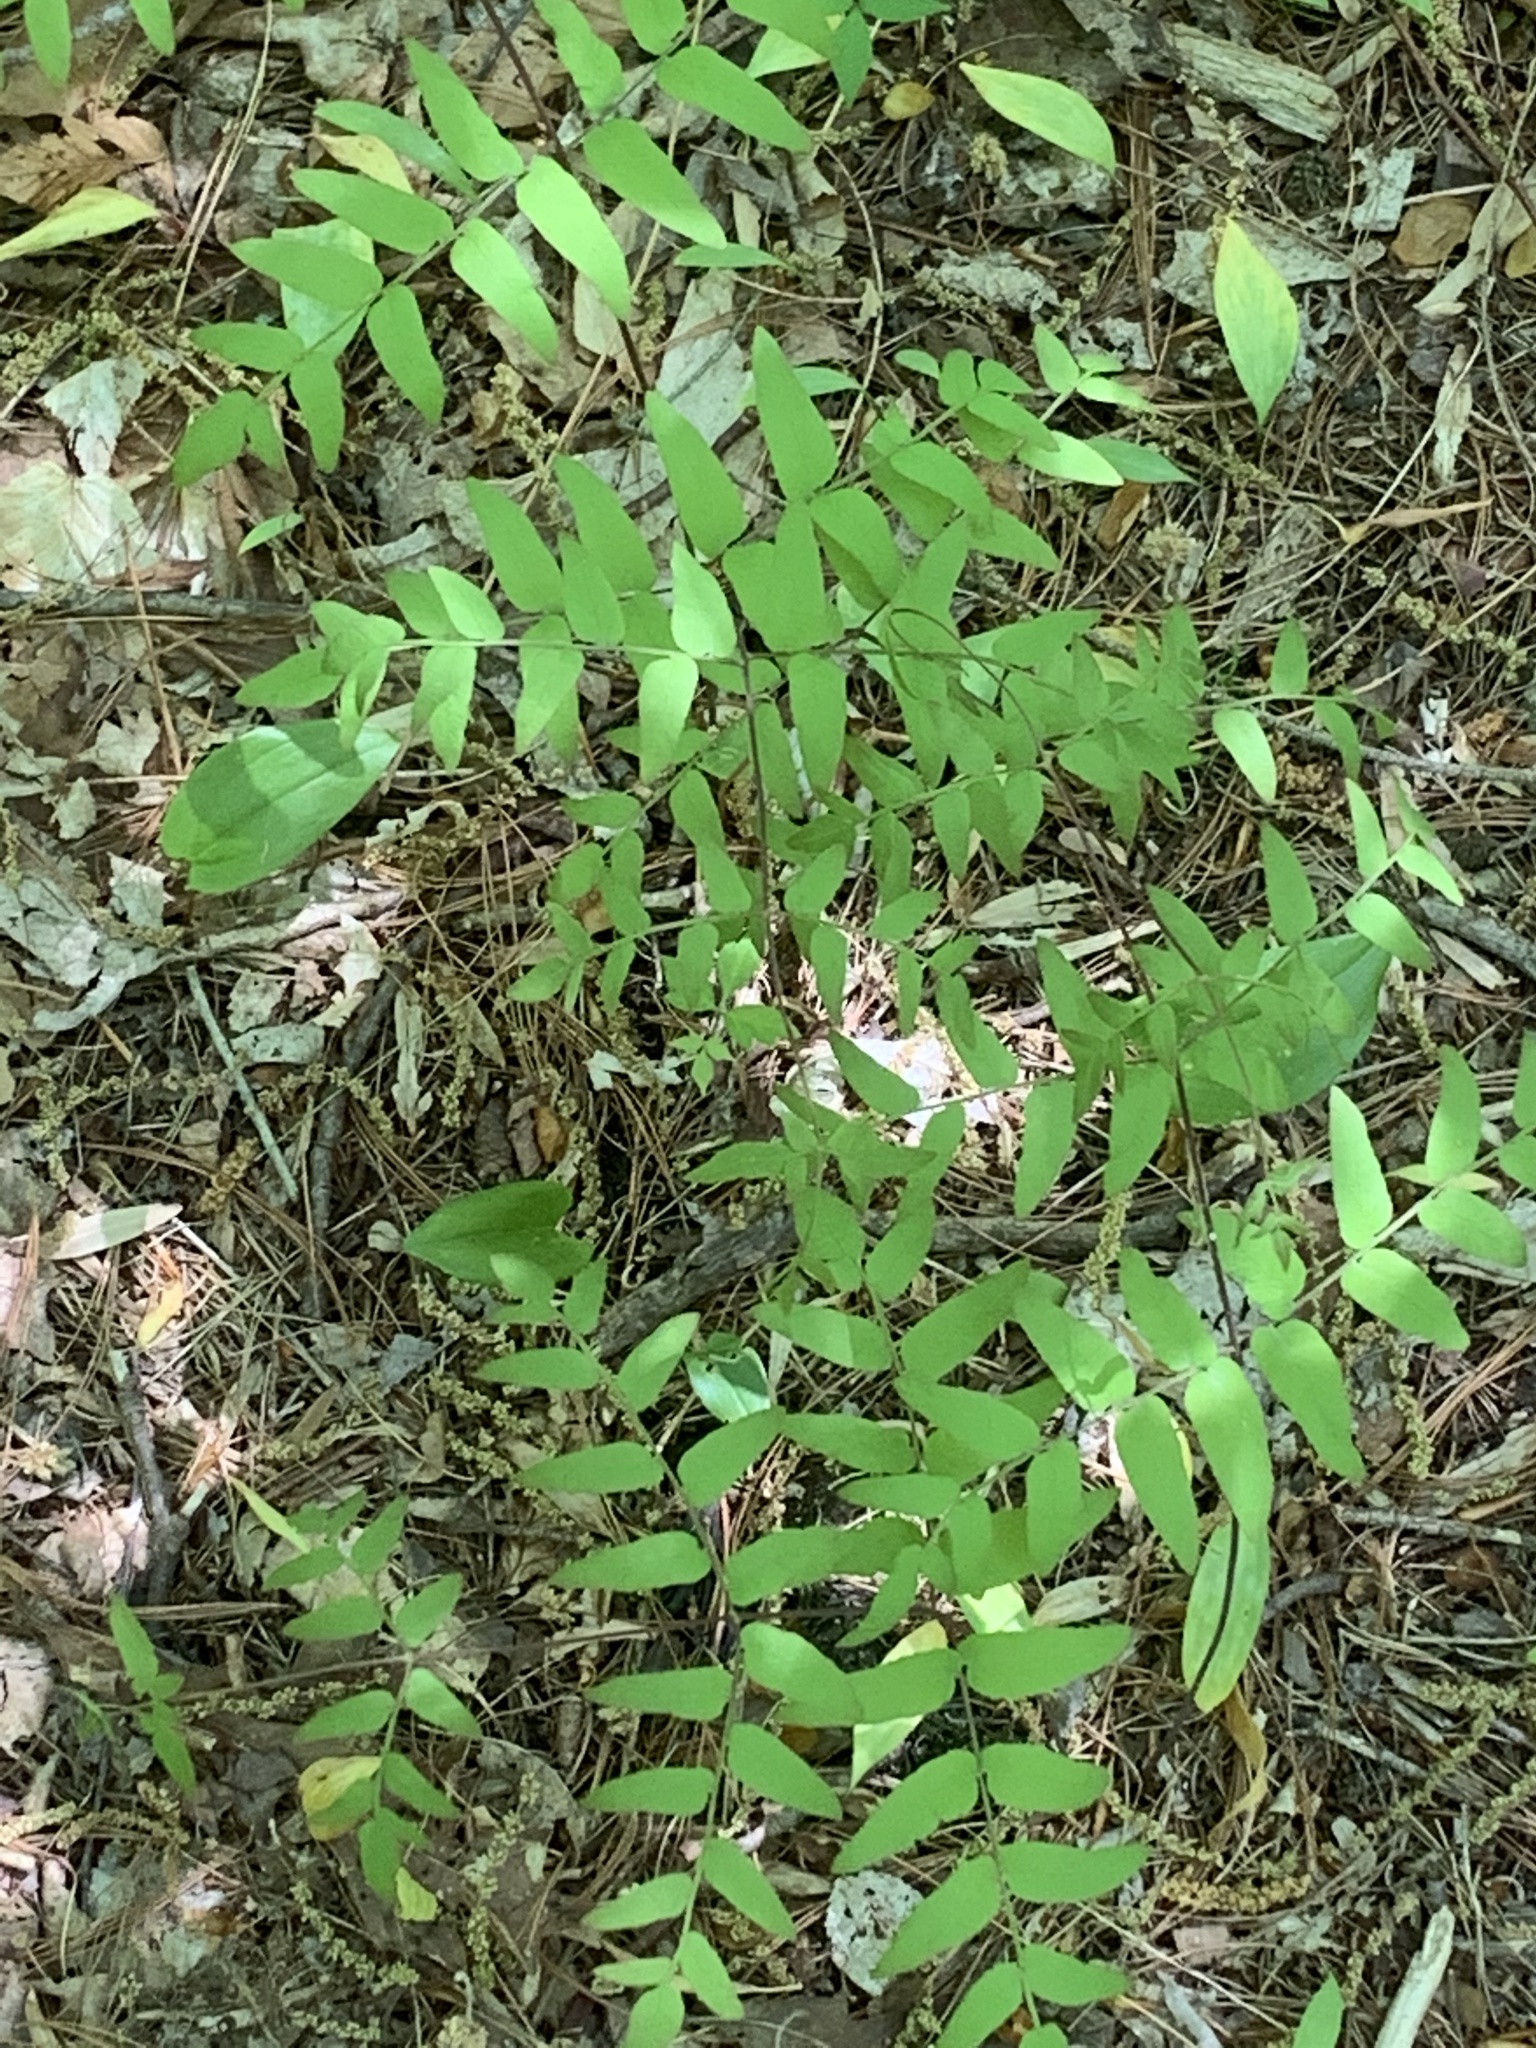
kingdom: Plantae
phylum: Tracheophyta
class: Polypodiopsida
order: Osmundales
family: Osmundaceae
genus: Osmunda
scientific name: Osmunda spectabilis
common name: American royal fern
